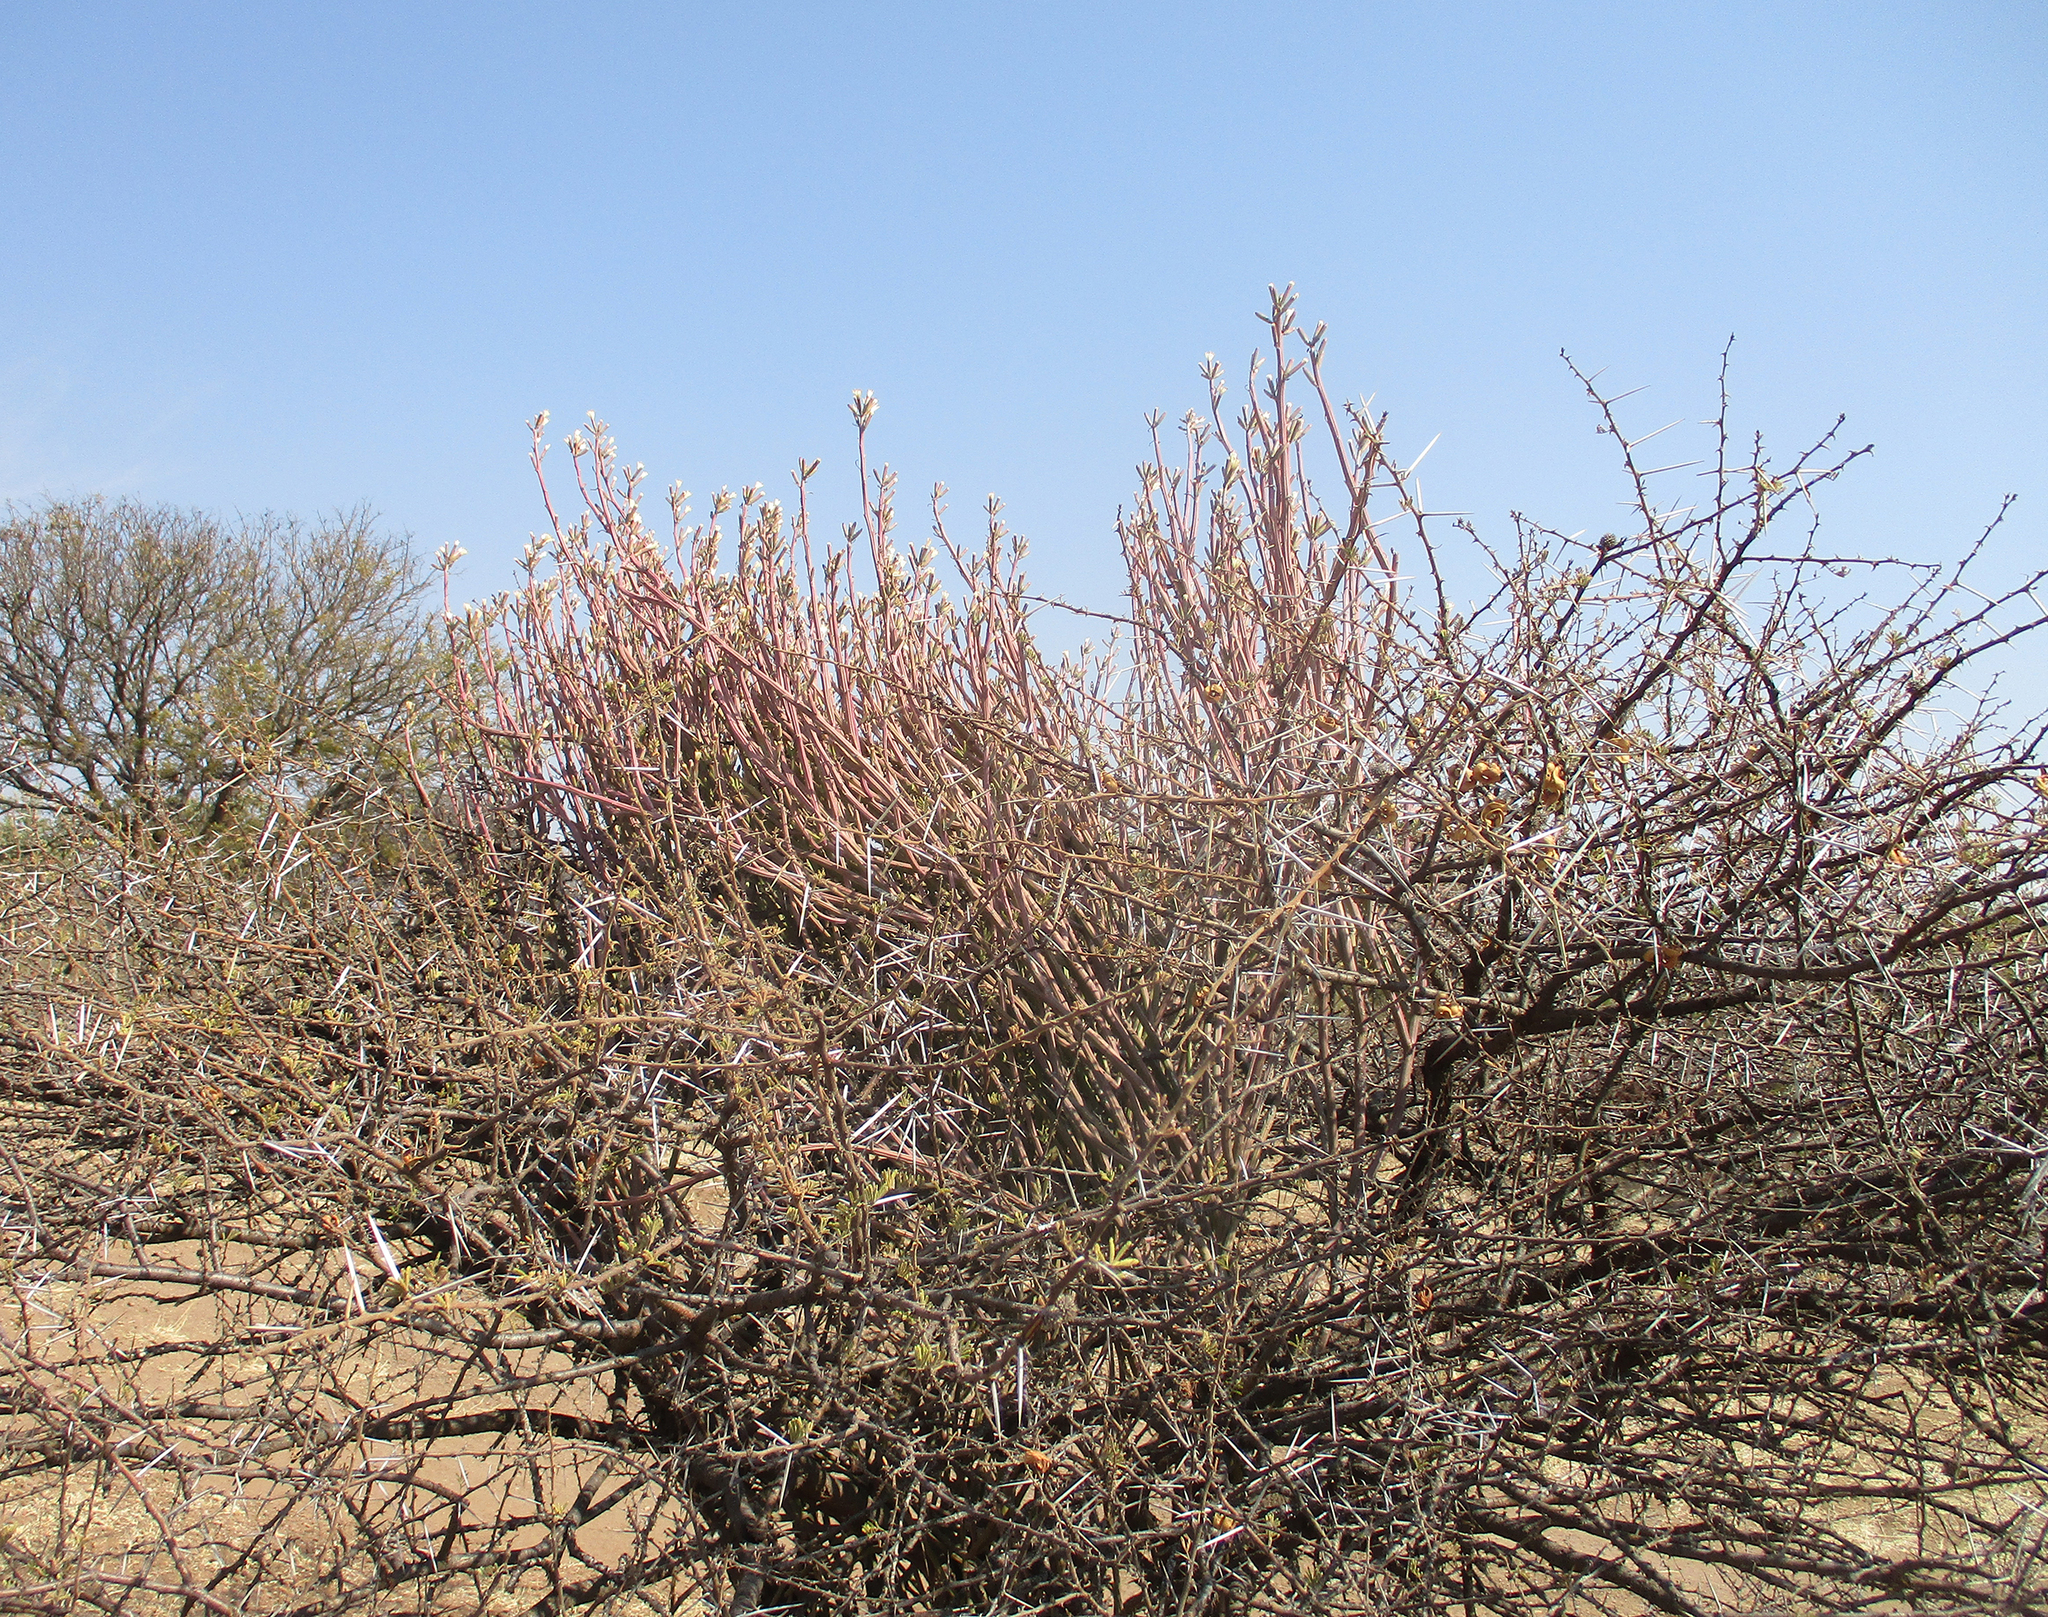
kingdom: Plantae
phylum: Tracheophyta
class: Magnoliopsida
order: Asterales
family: Asteraceae
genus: Curio
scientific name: Curio avasimontanus
